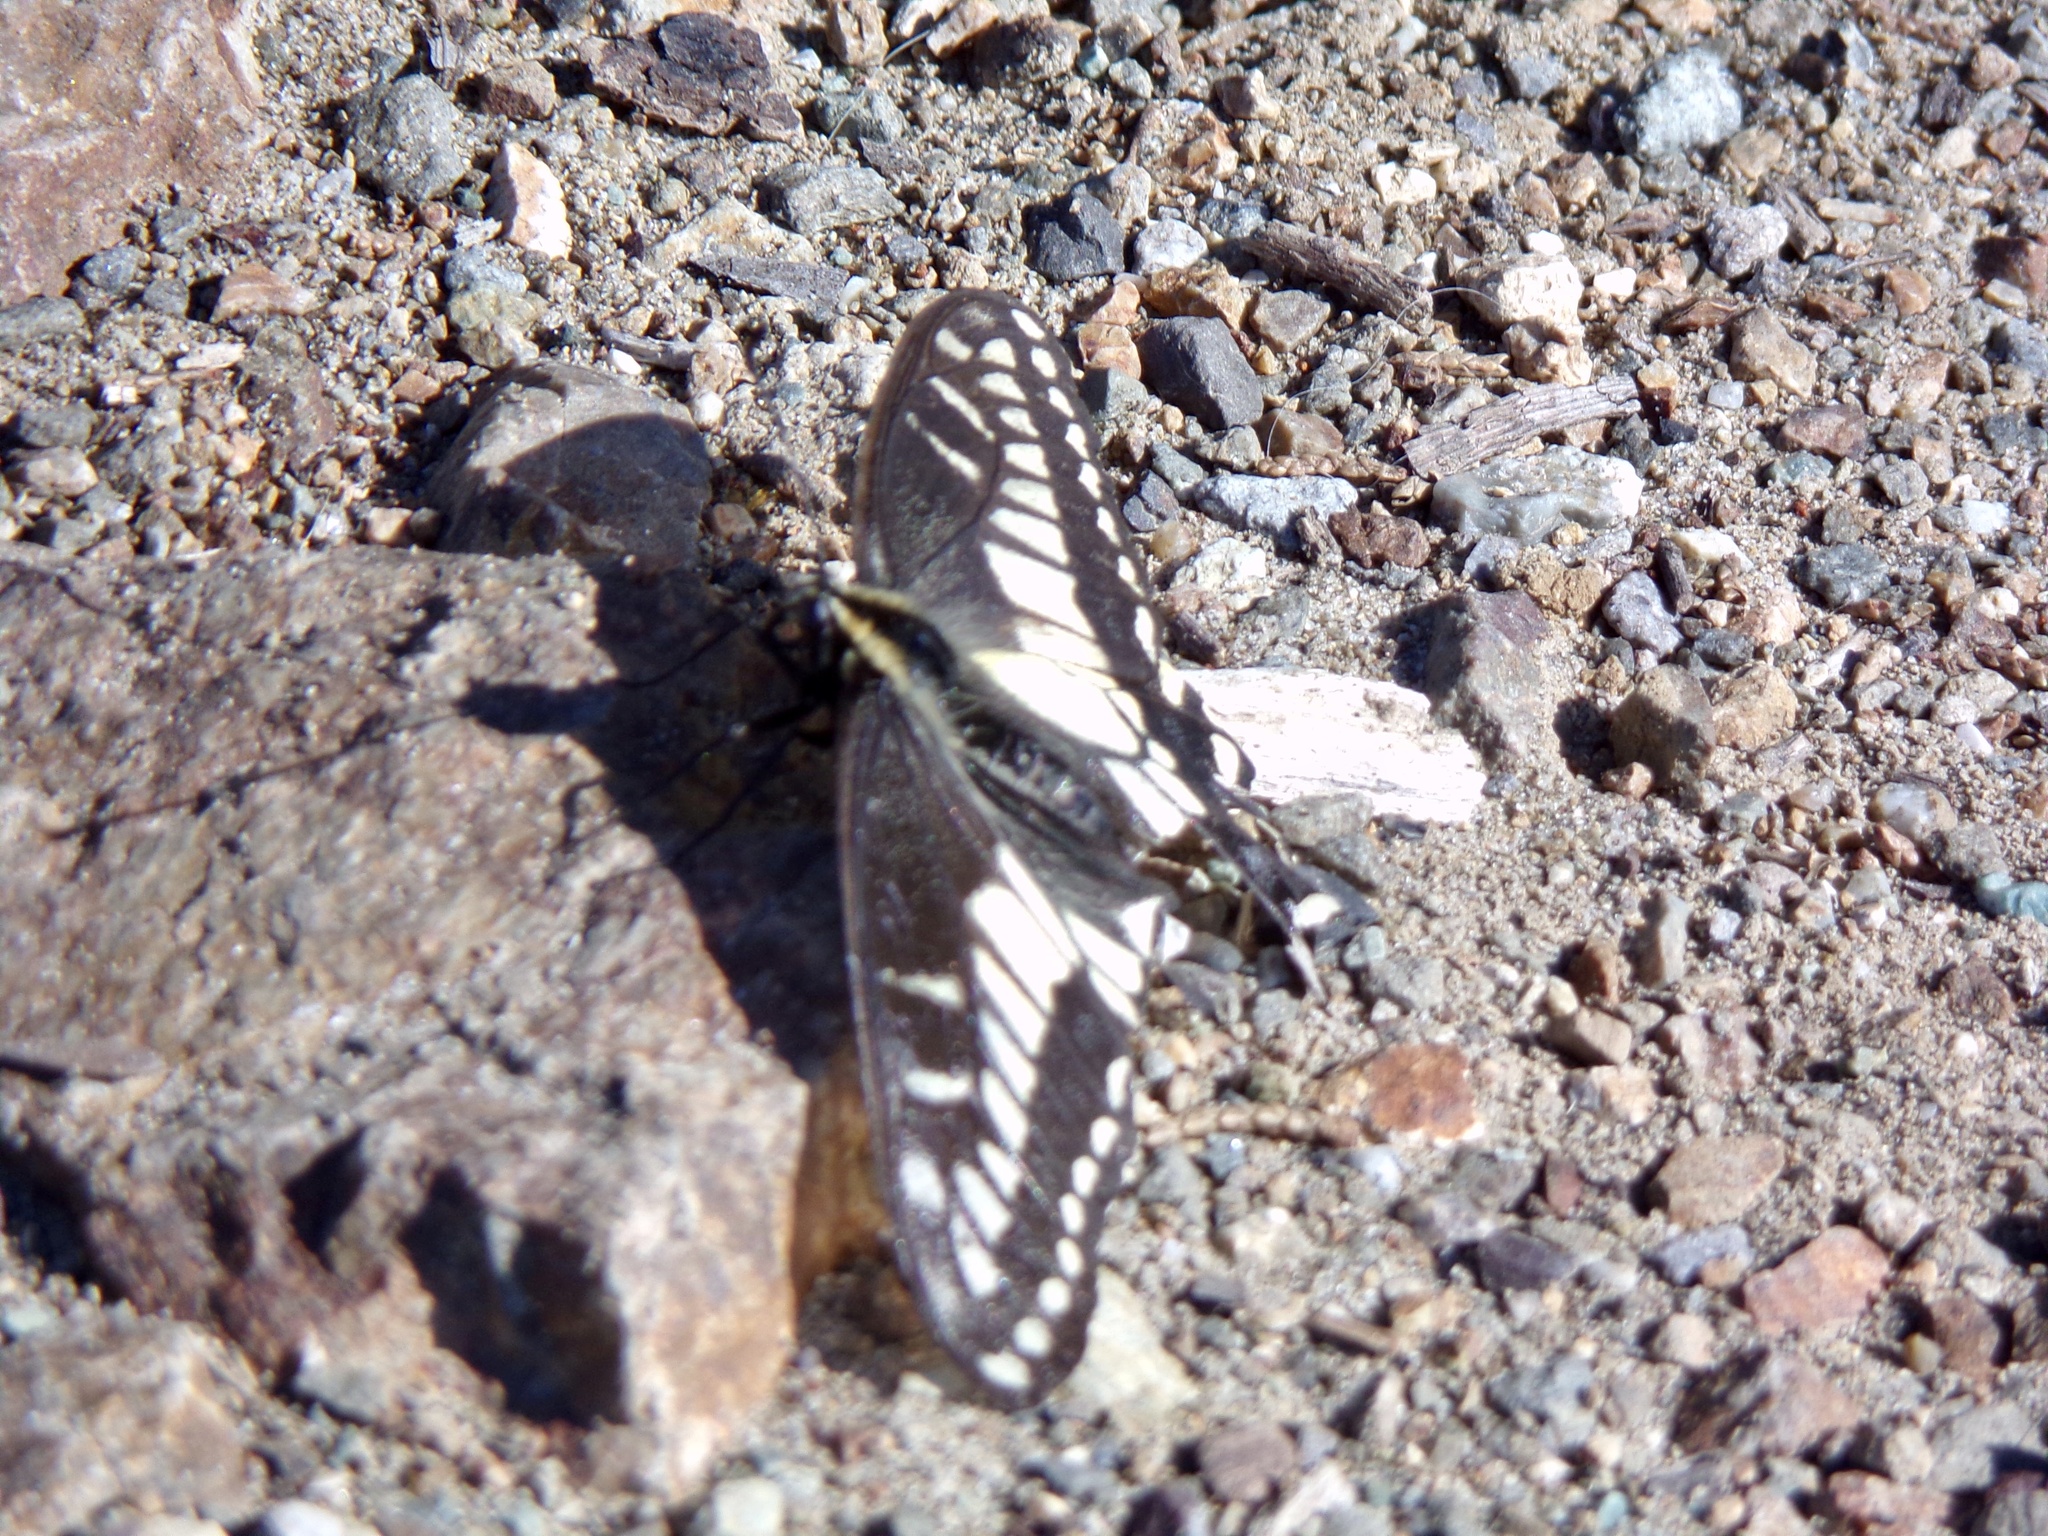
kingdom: Animalia
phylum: Arthropoda
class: Insecta
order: Lepidoptera
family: Papilionidae
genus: Papilio
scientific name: Papilio zelicaon
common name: Anise swallowtail
